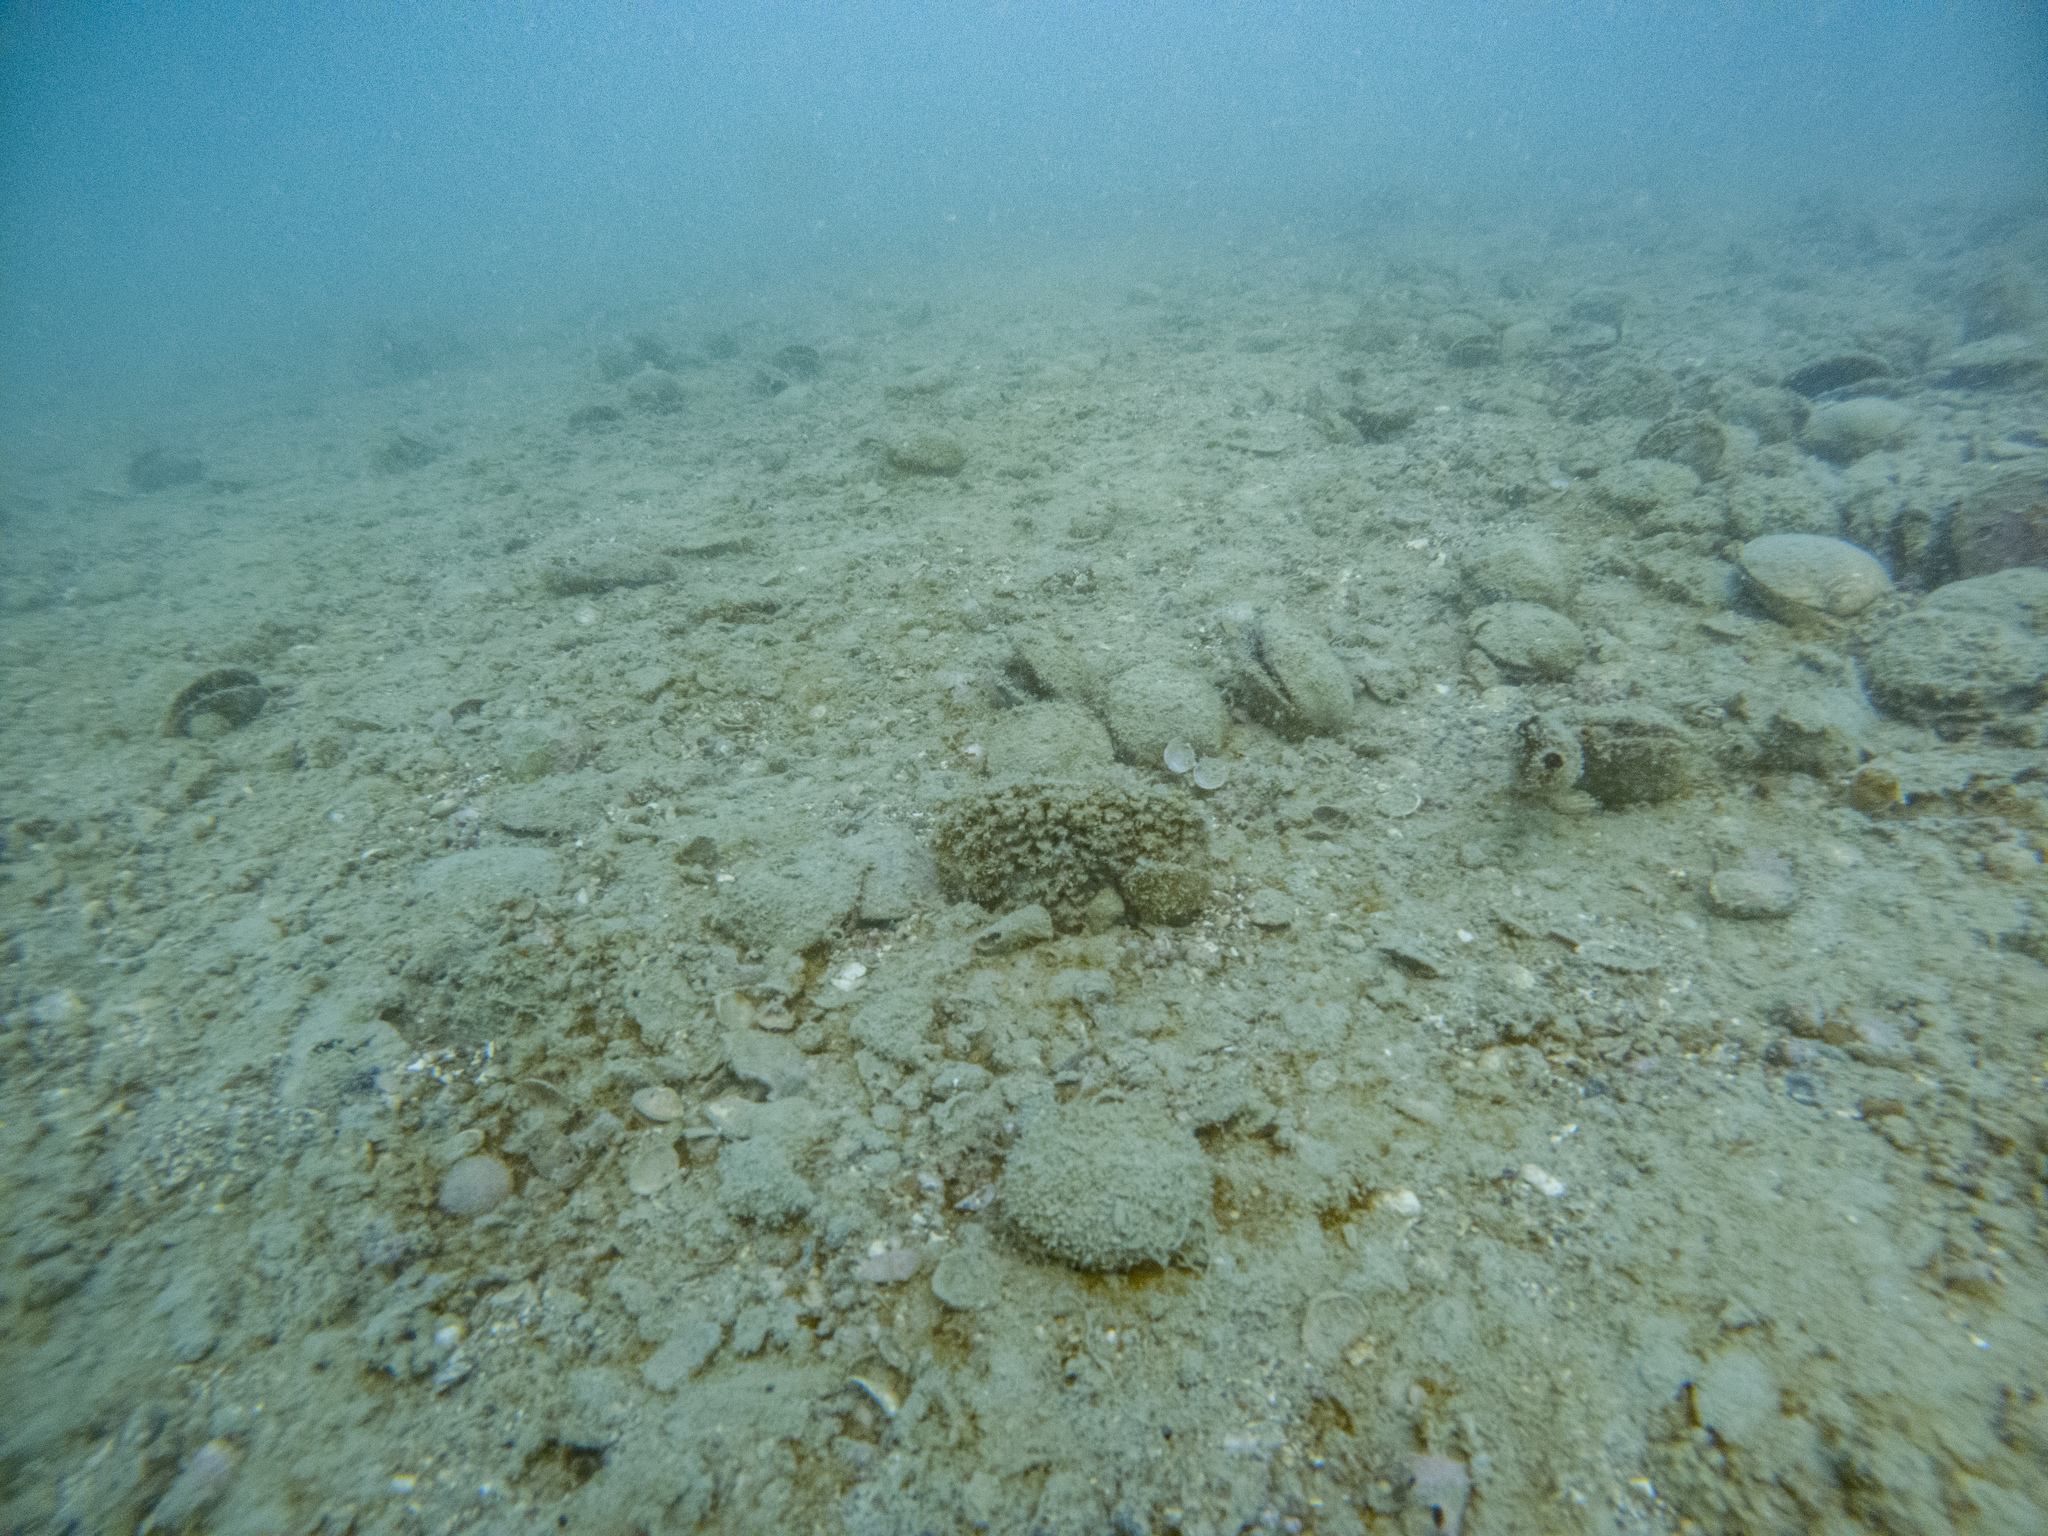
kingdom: Animalia
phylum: Mollusca
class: Bivalvia
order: Ostreida
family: Pinnidae
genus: Atrina
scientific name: Atrina zelandica
